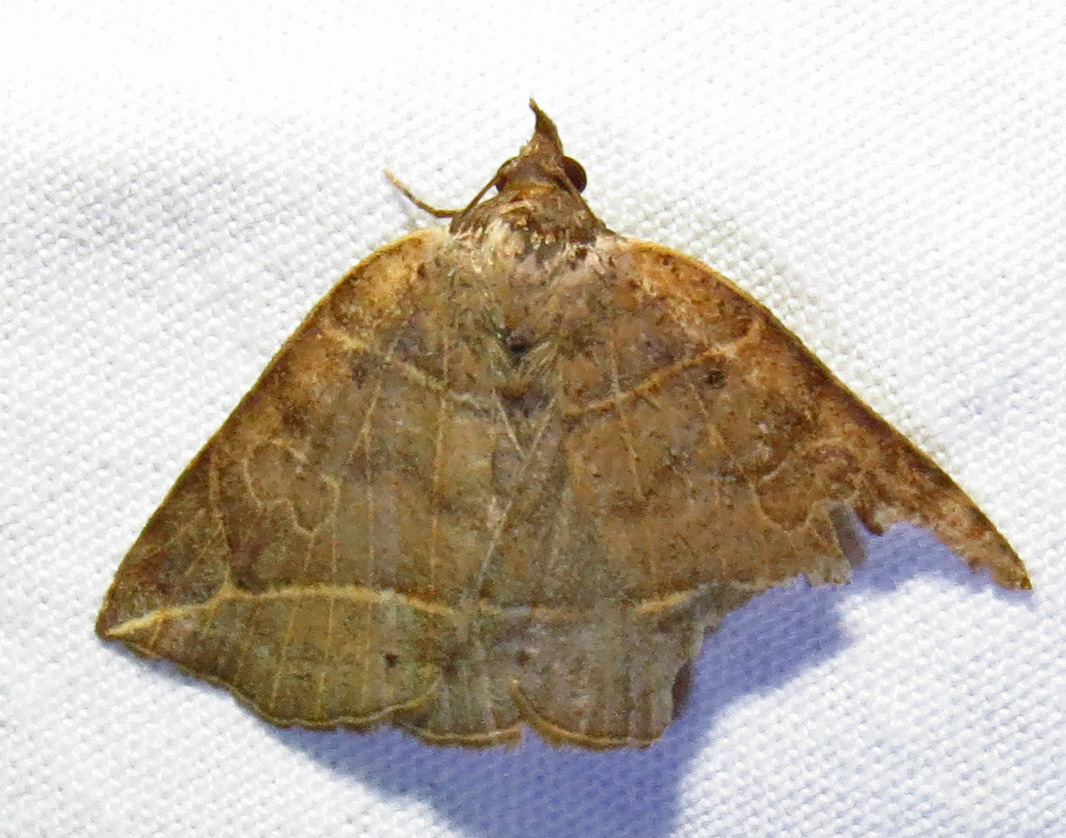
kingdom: Animalia
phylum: Arthropoda
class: Insecta
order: Lepidoptera
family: Erebidae
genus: Isogona
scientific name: Isogona tenuis
